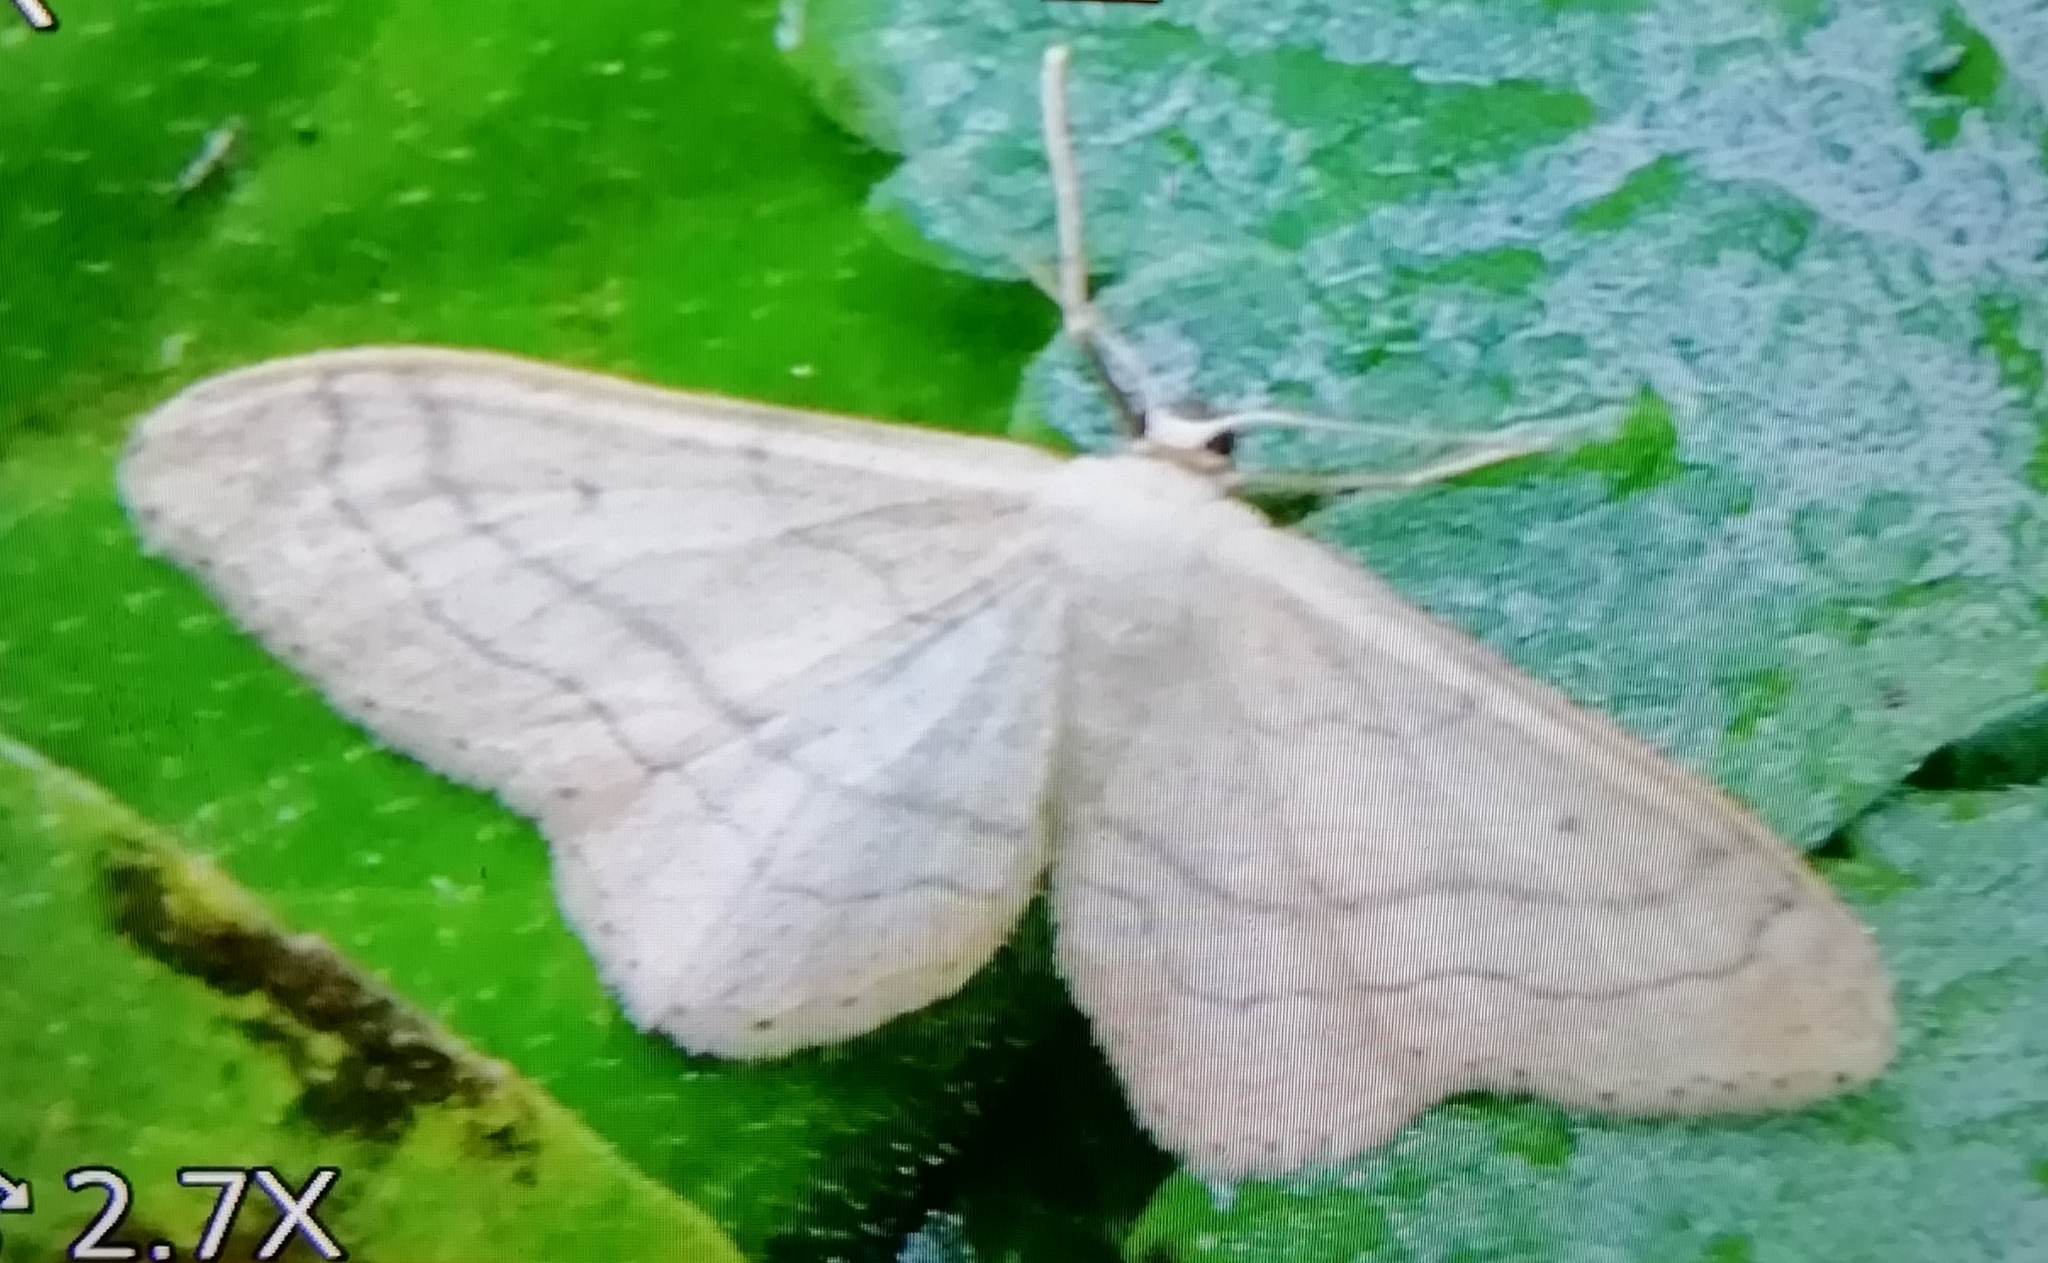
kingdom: Animalia
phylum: Arthropoda
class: Insecta
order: Lepidoptera
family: Geometridae
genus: Idaea
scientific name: Idaea aversata
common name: Riband wave
